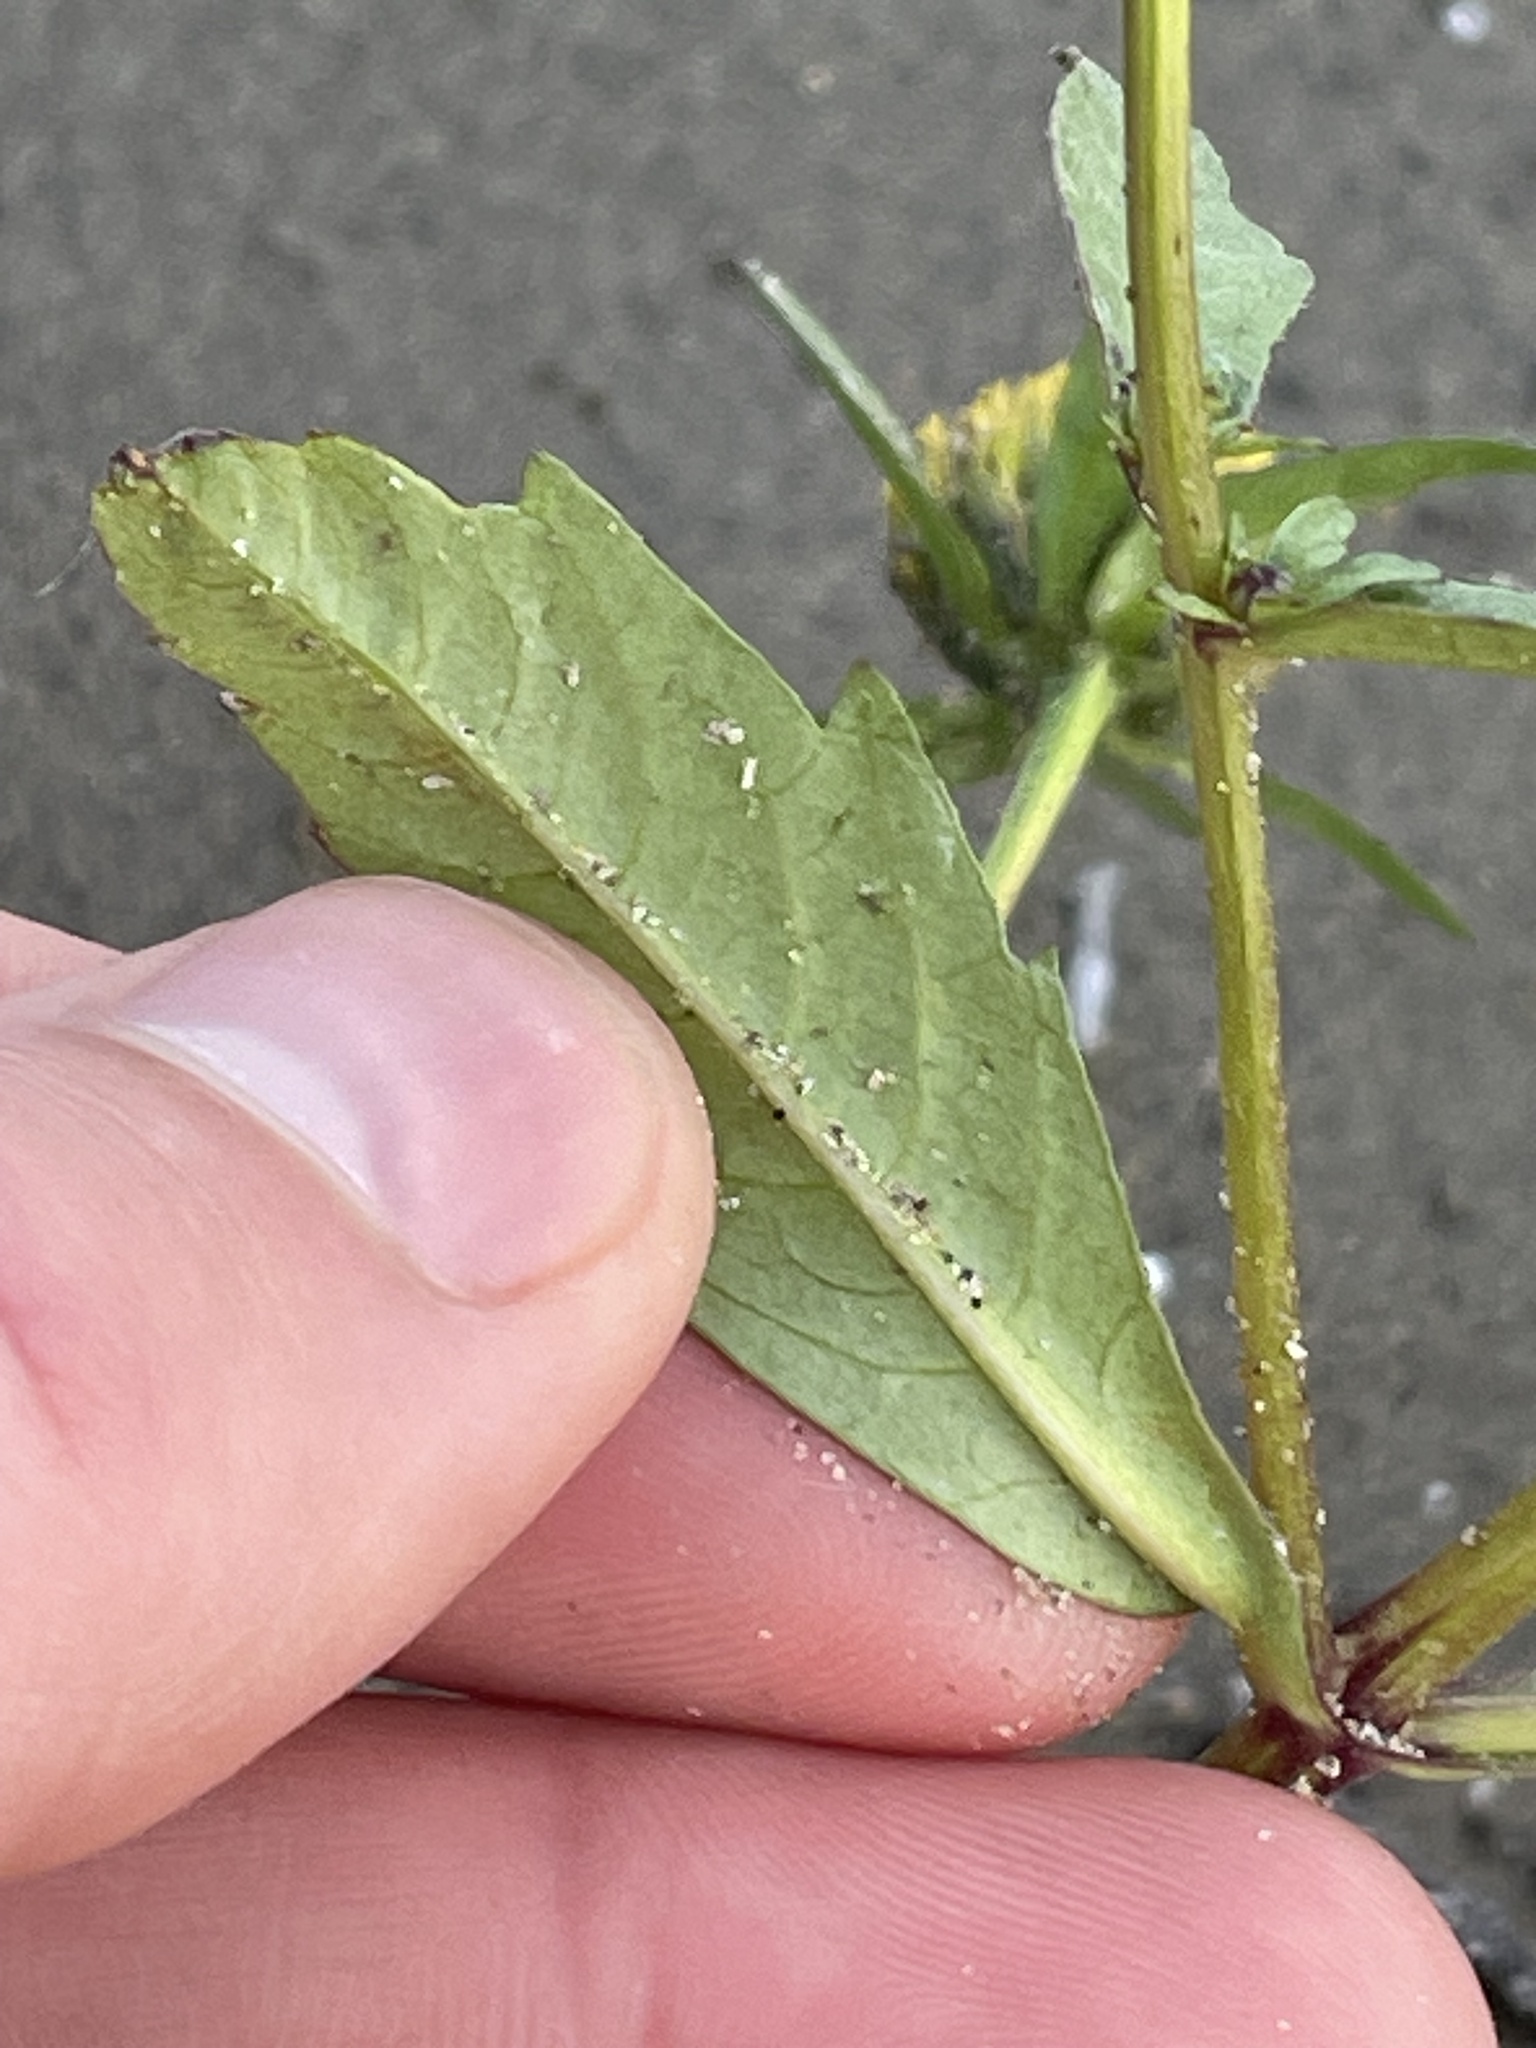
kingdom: Plantae
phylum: Tracheophyta
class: Magnoliopsida
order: Asterales
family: Asteraceae
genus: Bidens
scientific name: Bidens tripartita
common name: Trifid bur-marigold
